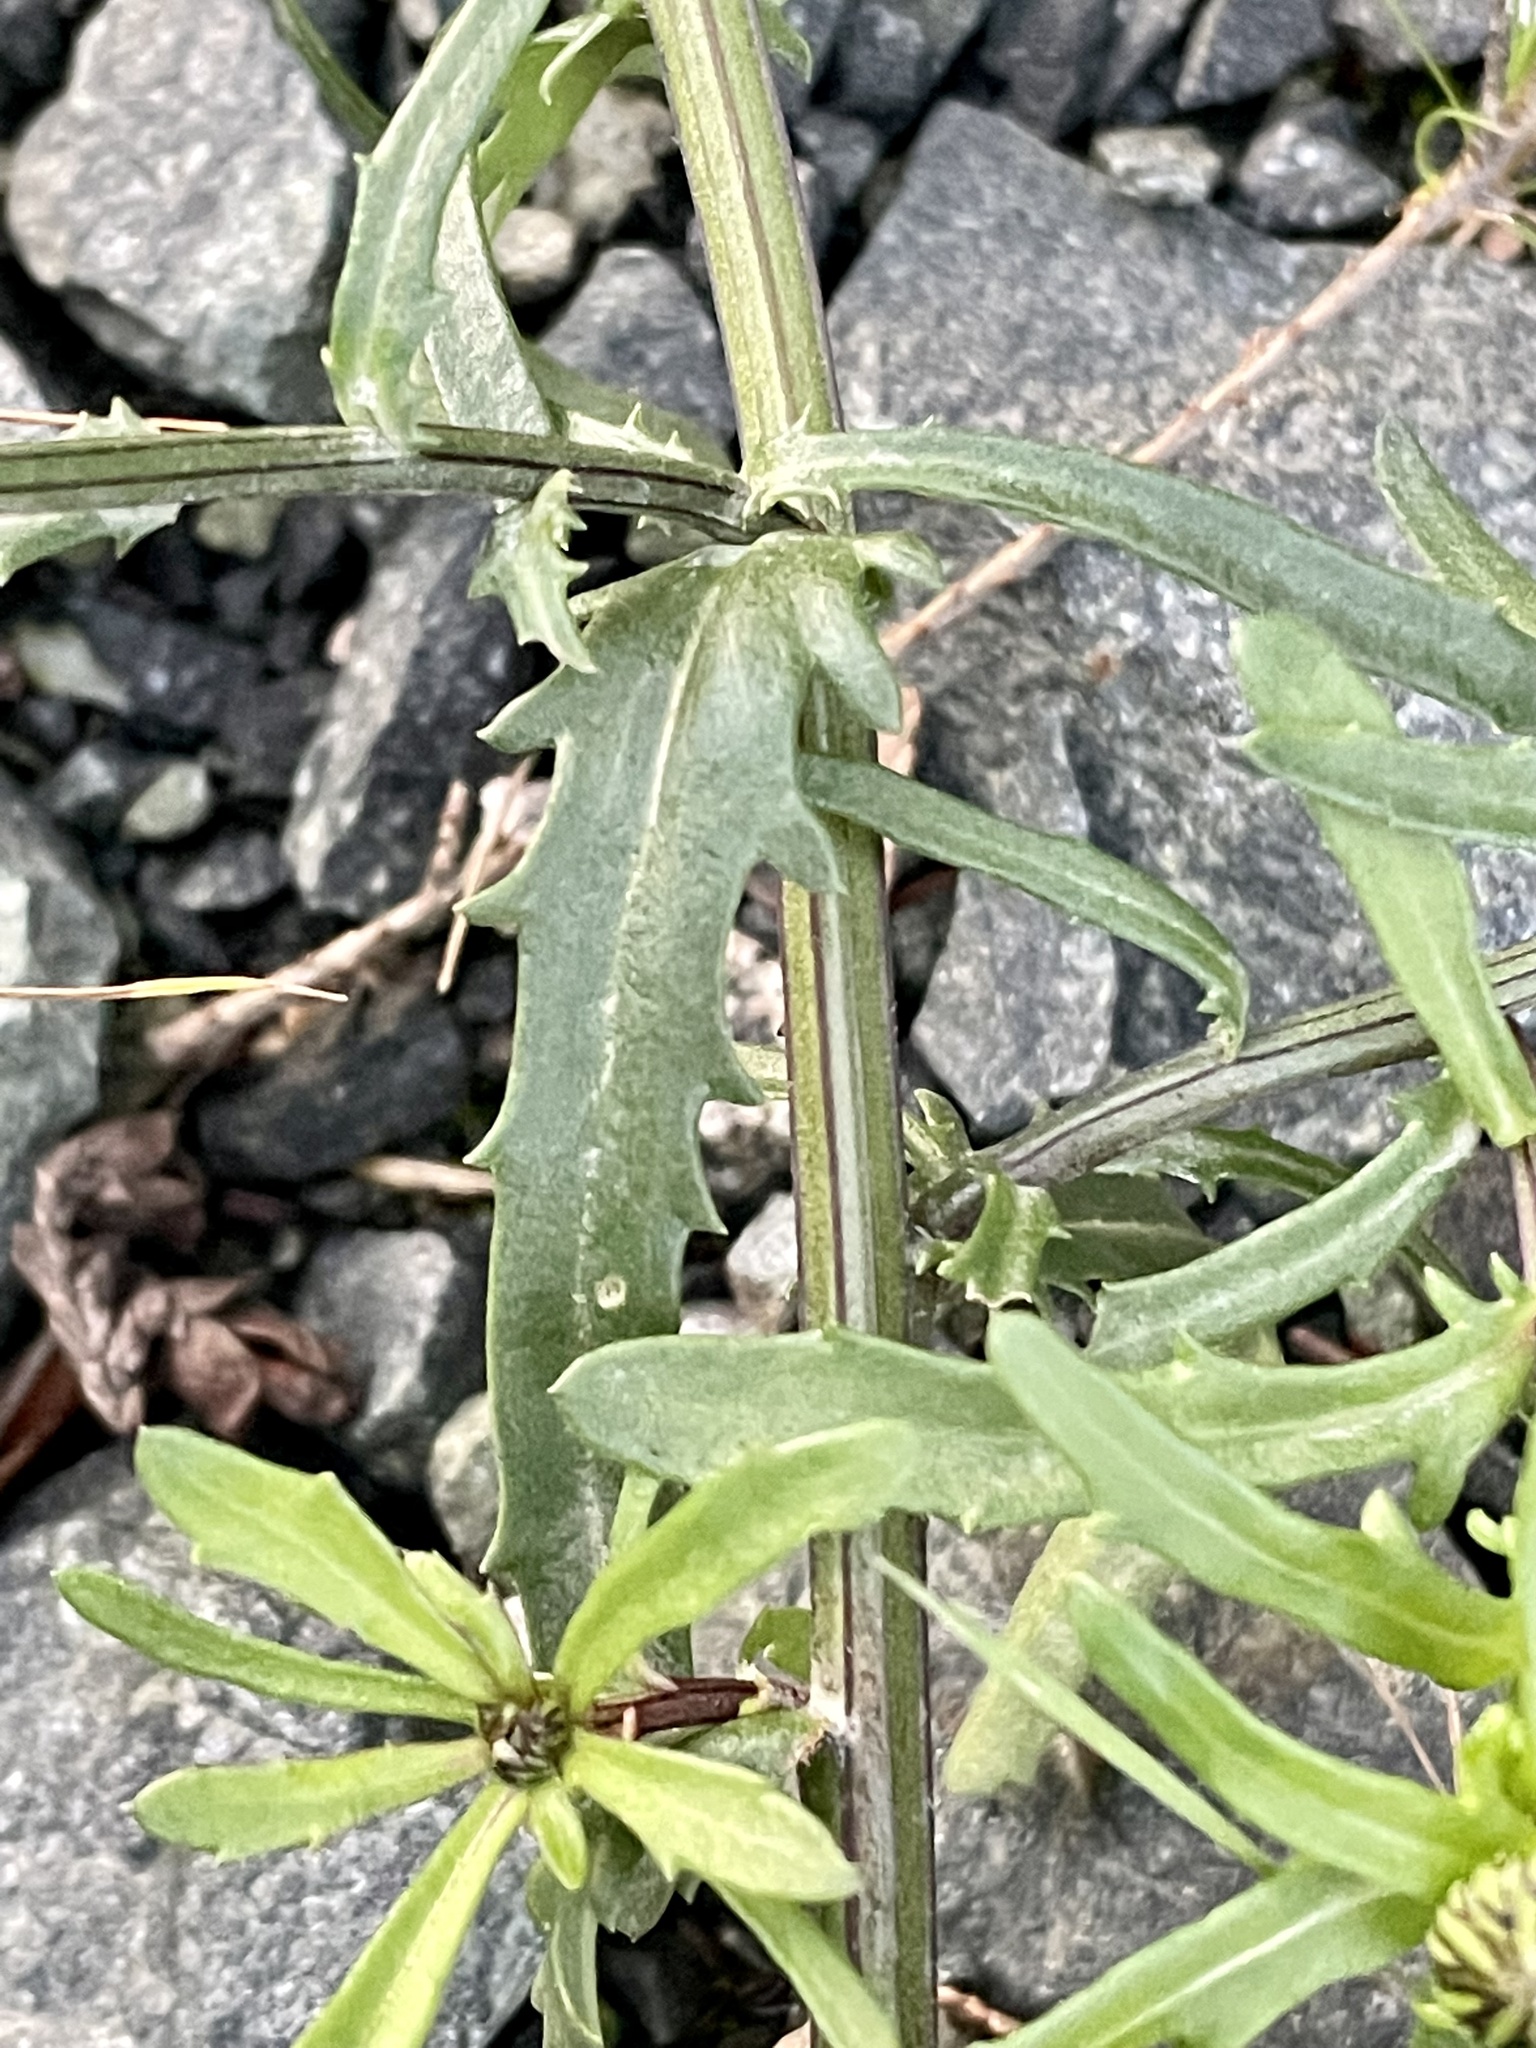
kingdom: Plantae
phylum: Tracheophyta
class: Magnoliopsida
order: Asterales
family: Asteraceae
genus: Leucanthemum
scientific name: Leucanthemum vulgare
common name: Oxeye daisy
